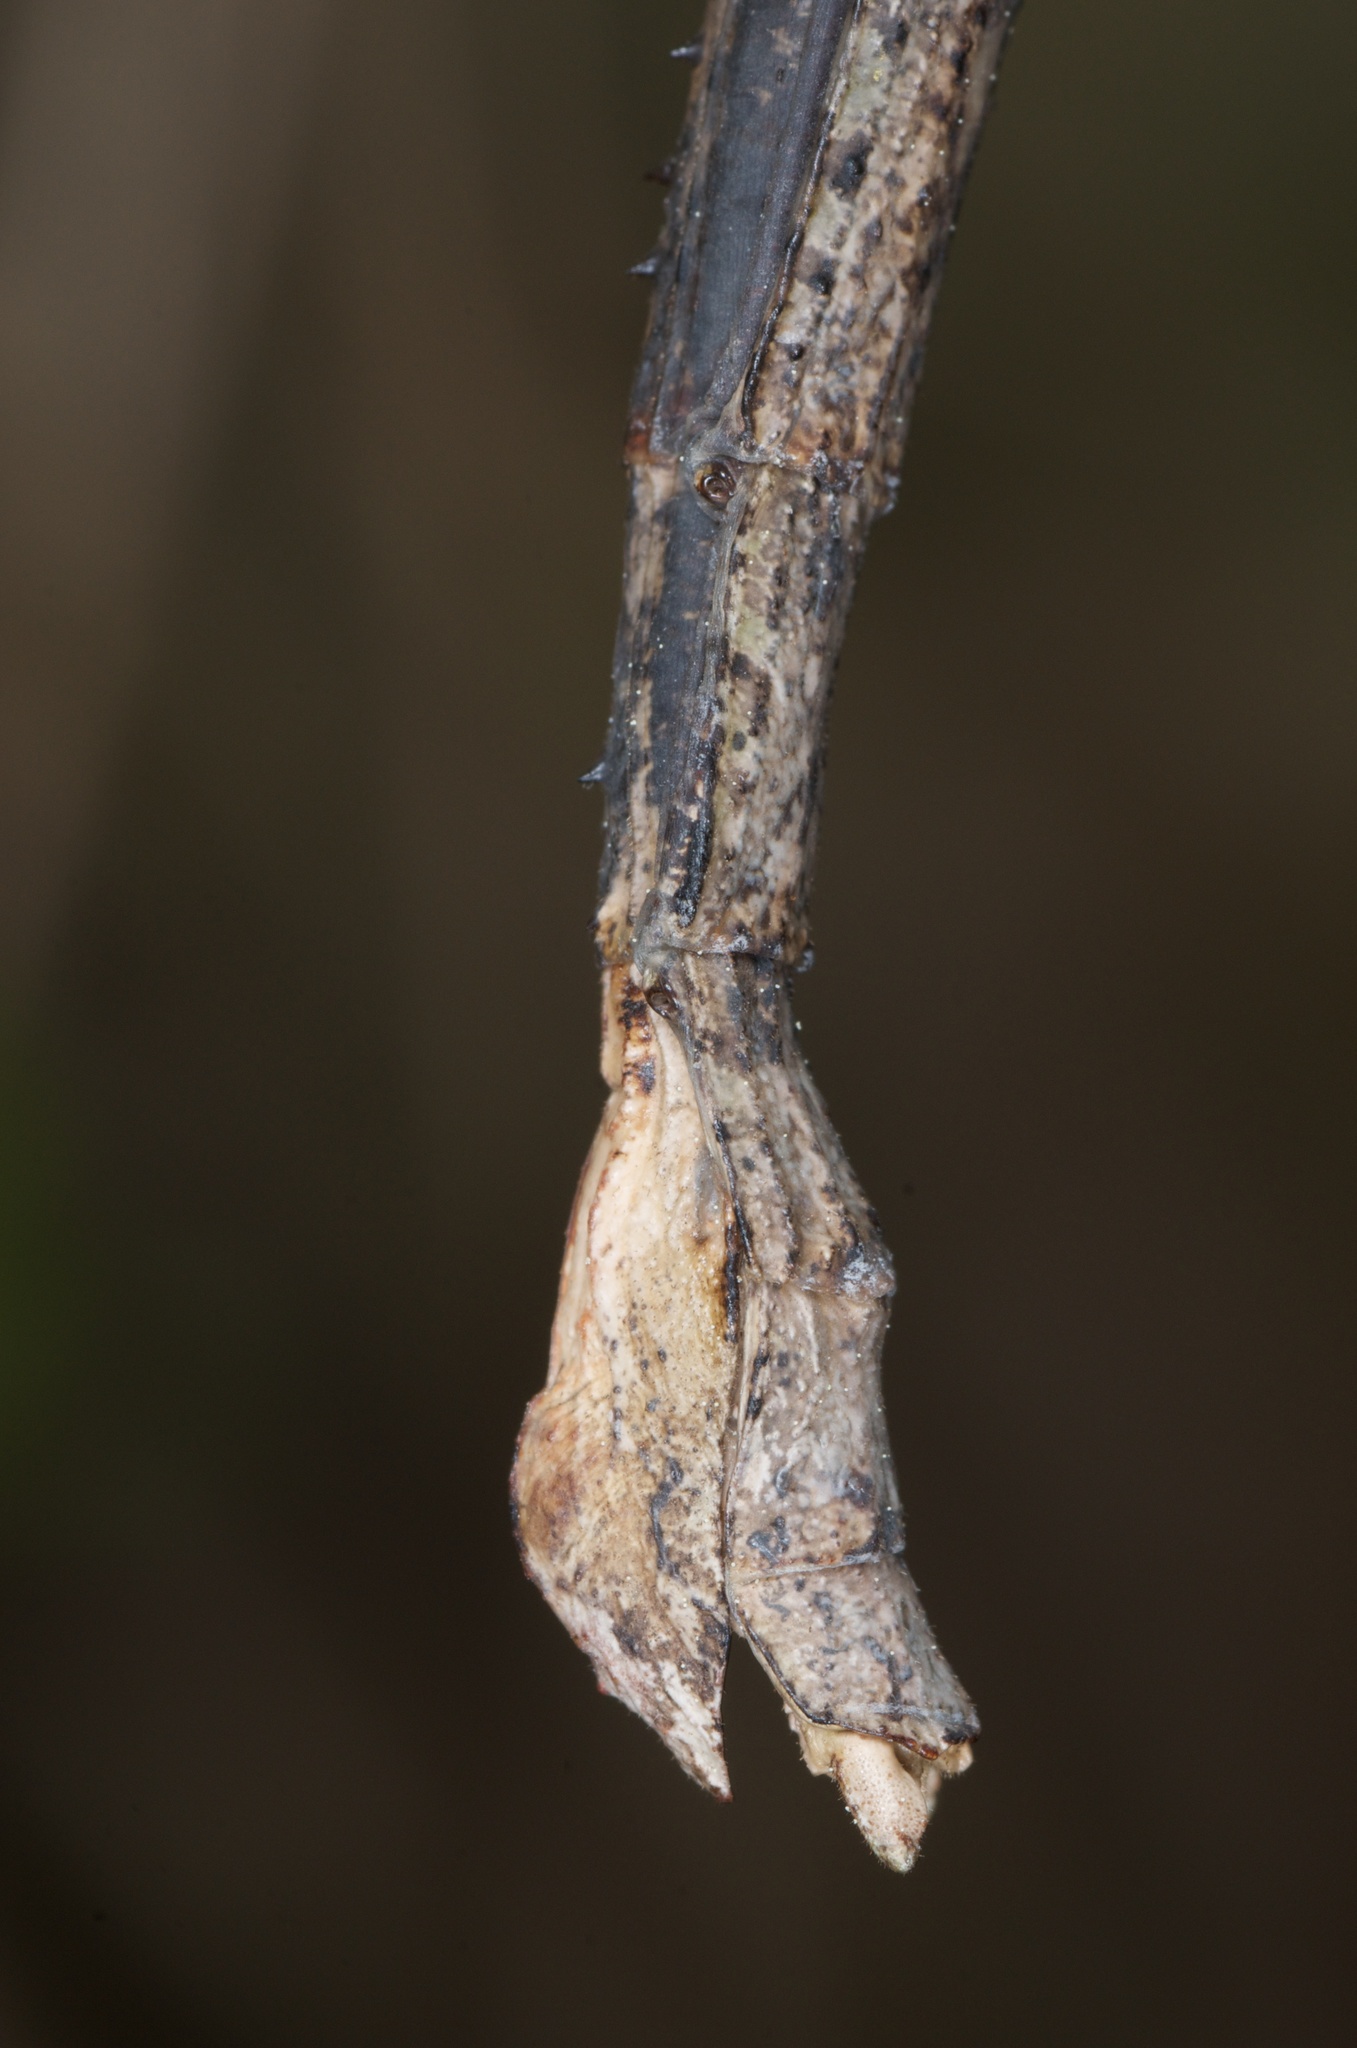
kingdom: Animalia
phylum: Arthropoda
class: Insecta
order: Phasmida
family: Phasmatidae
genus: Argosarchus
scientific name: Argosarchus horridus
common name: Bristly stick insect
